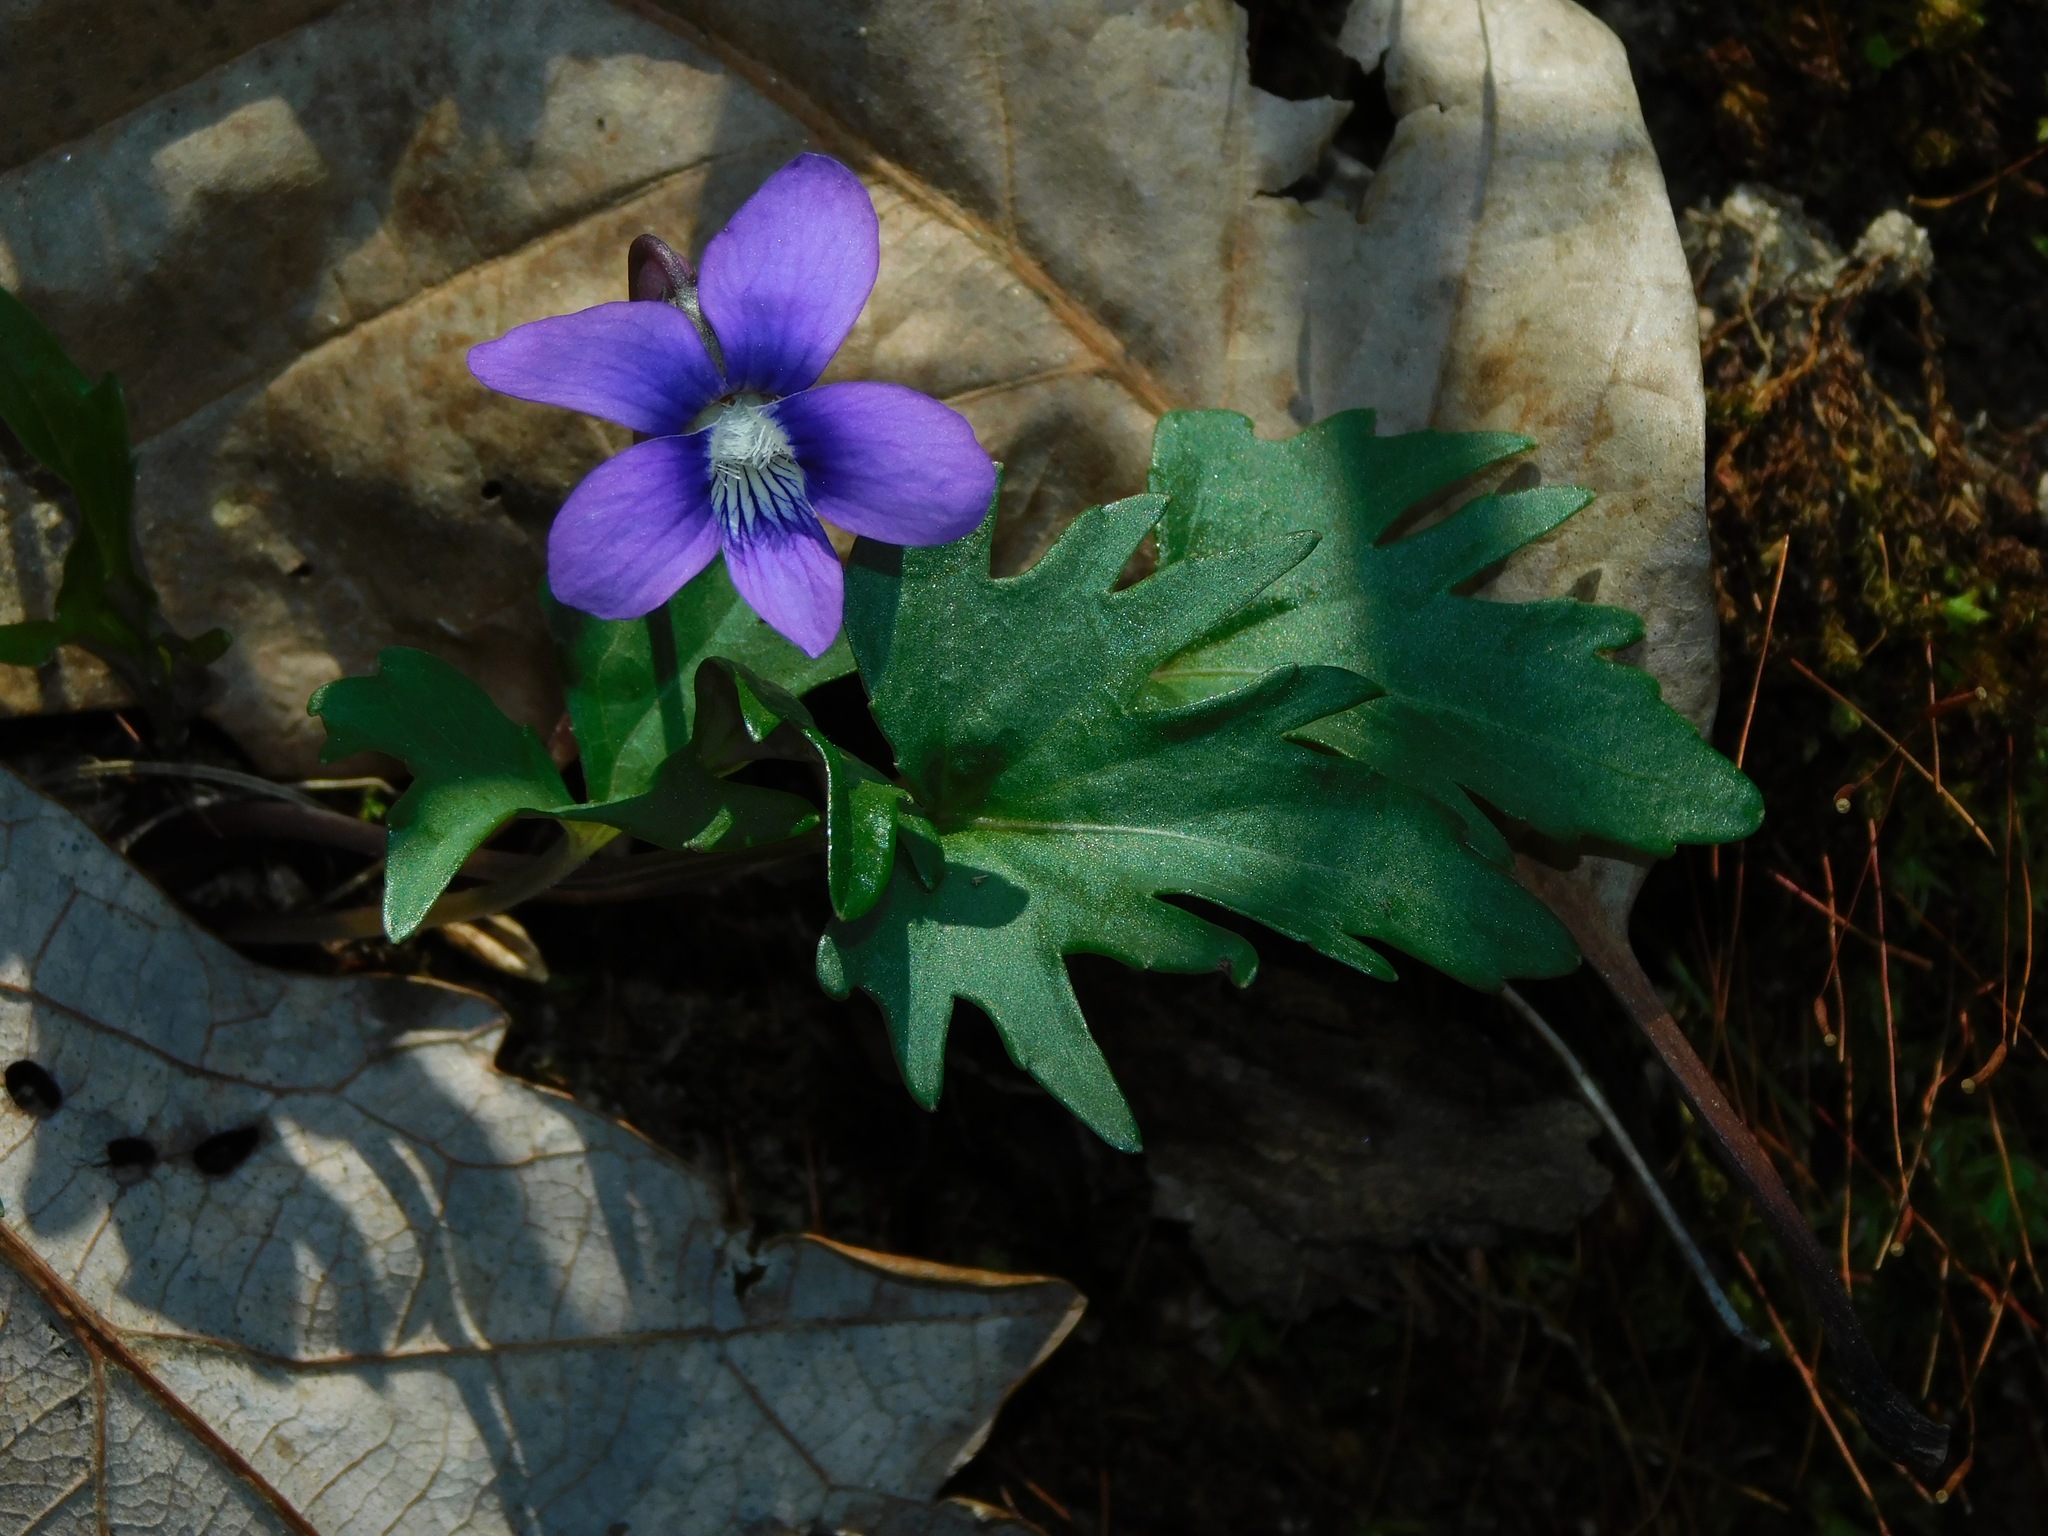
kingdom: Plantae
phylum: Tracheophyta
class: Magnoliopsida
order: Malpighiales
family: Violaceae
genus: Viola
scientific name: Viola palmata
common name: Early blue violet
